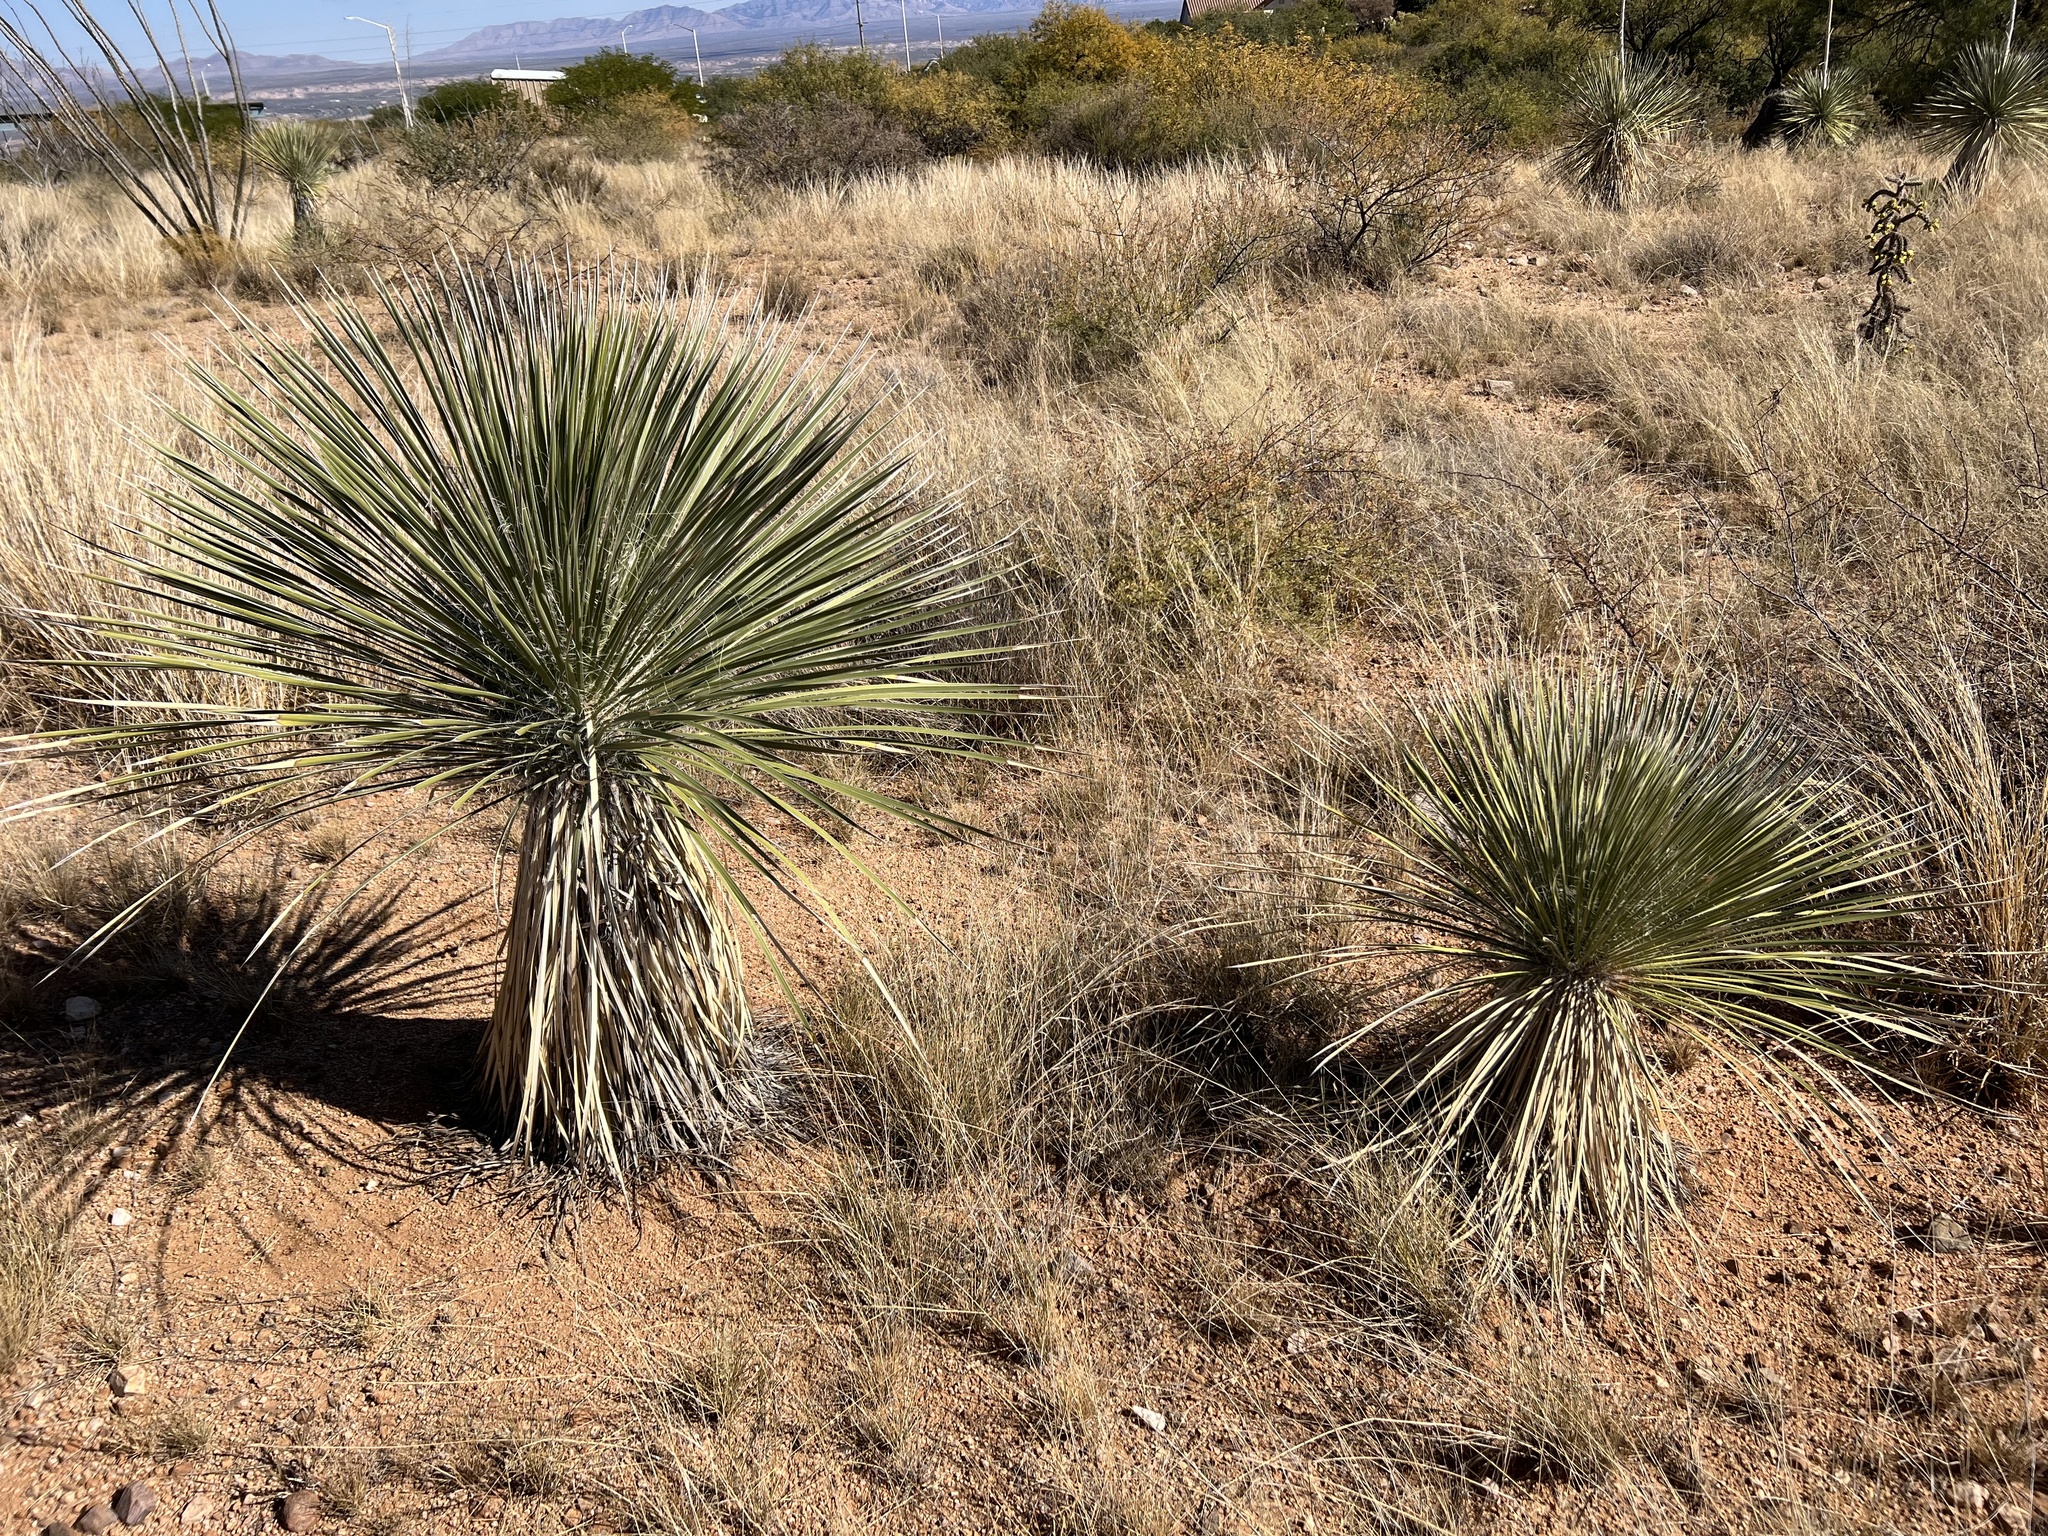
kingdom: Plantae
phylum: Tracheophyta
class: Liliopsida
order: Asparagales
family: Asparagaceae
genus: Yucca
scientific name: Yucca elata
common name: Palmella
